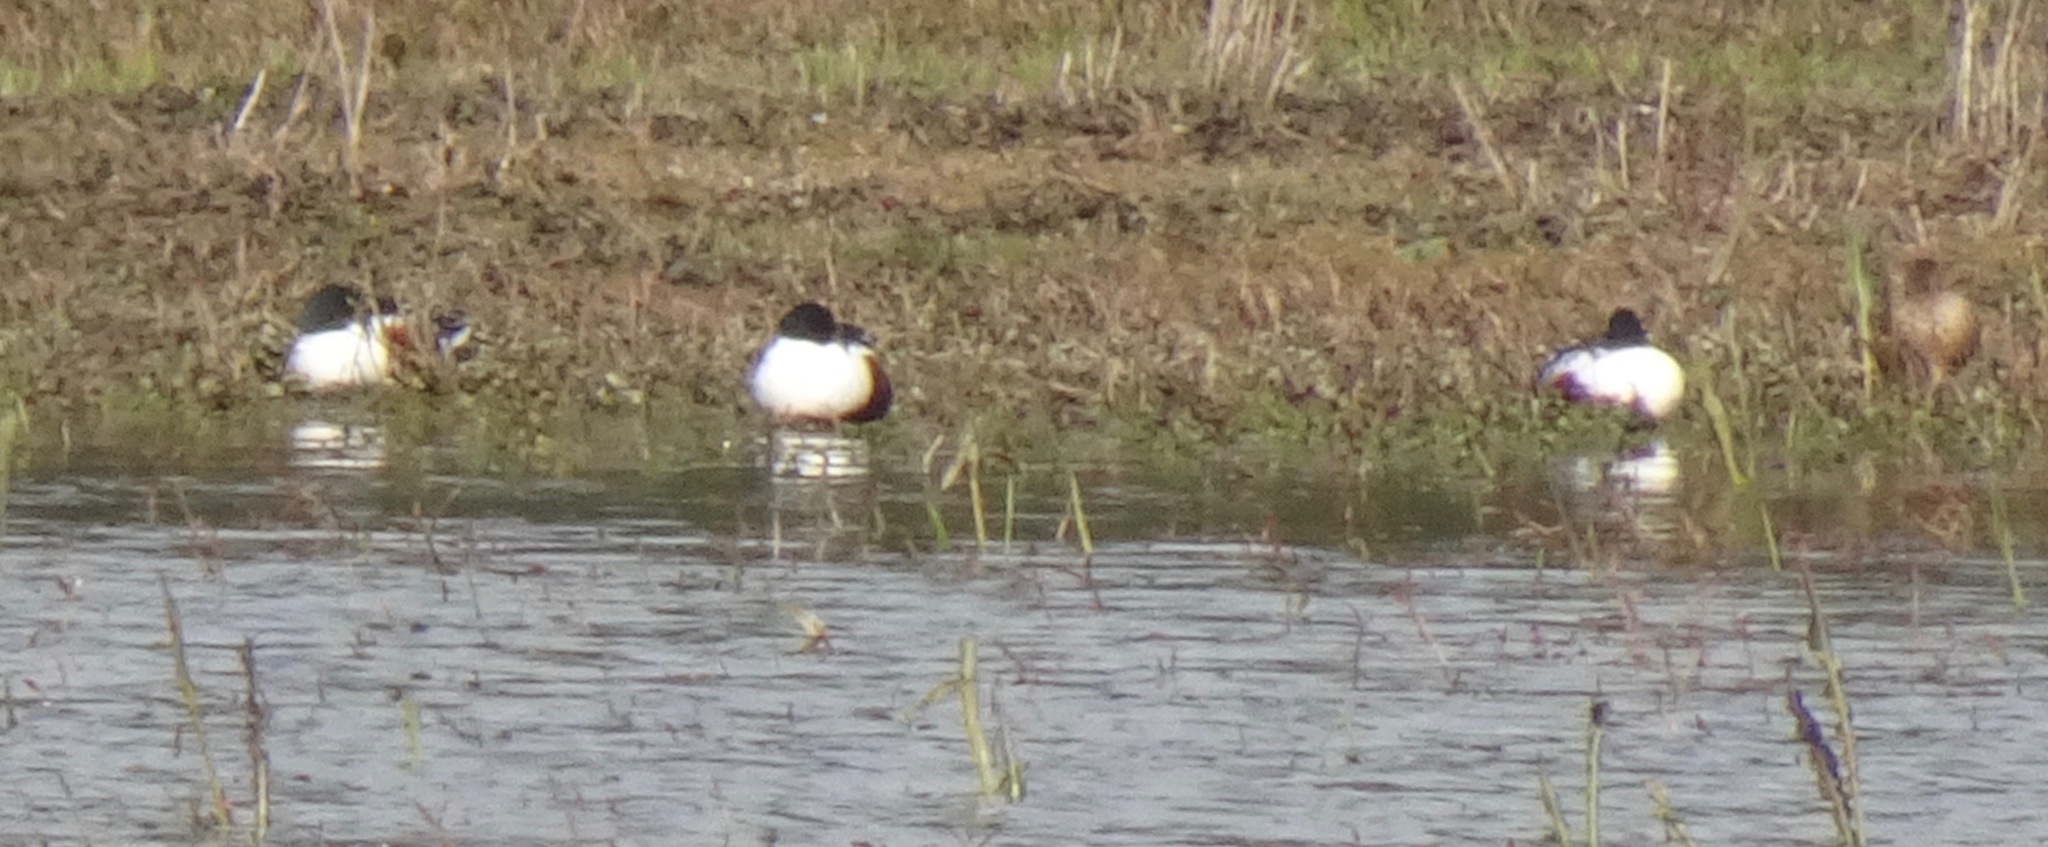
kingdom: Animalia
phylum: Chordata
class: Aves
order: Anseriformes
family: Anatidae
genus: Spatula
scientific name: Spatula clypeata
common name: Northern shoveler
